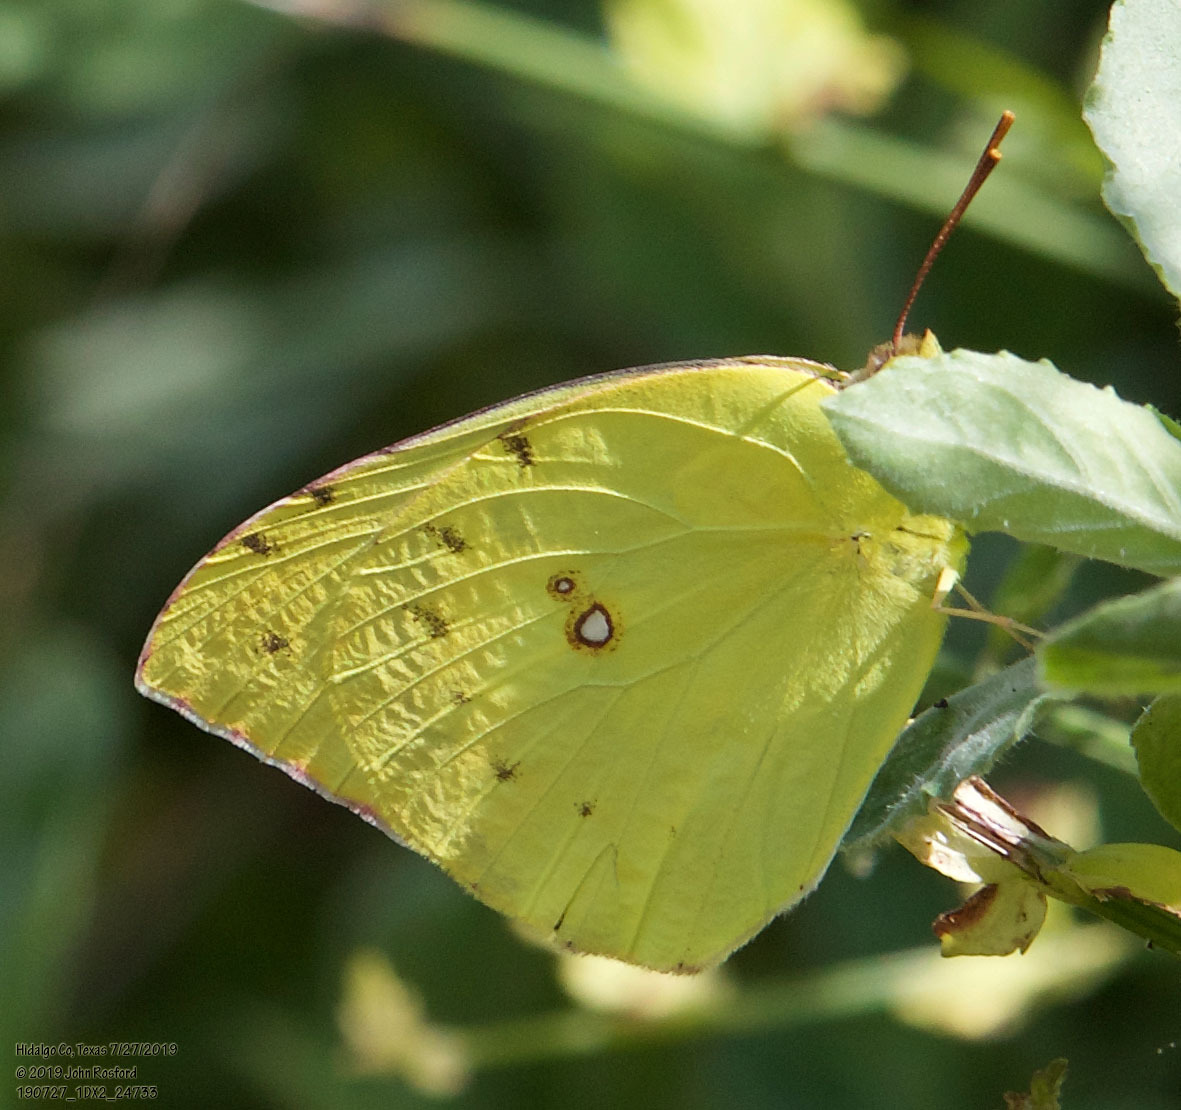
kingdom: Animalia
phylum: Arthropoda
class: Insecta
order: Lepidoptera
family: Pieridae
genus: Zerene
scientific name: Zerene cesonia
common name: Southern dogface
